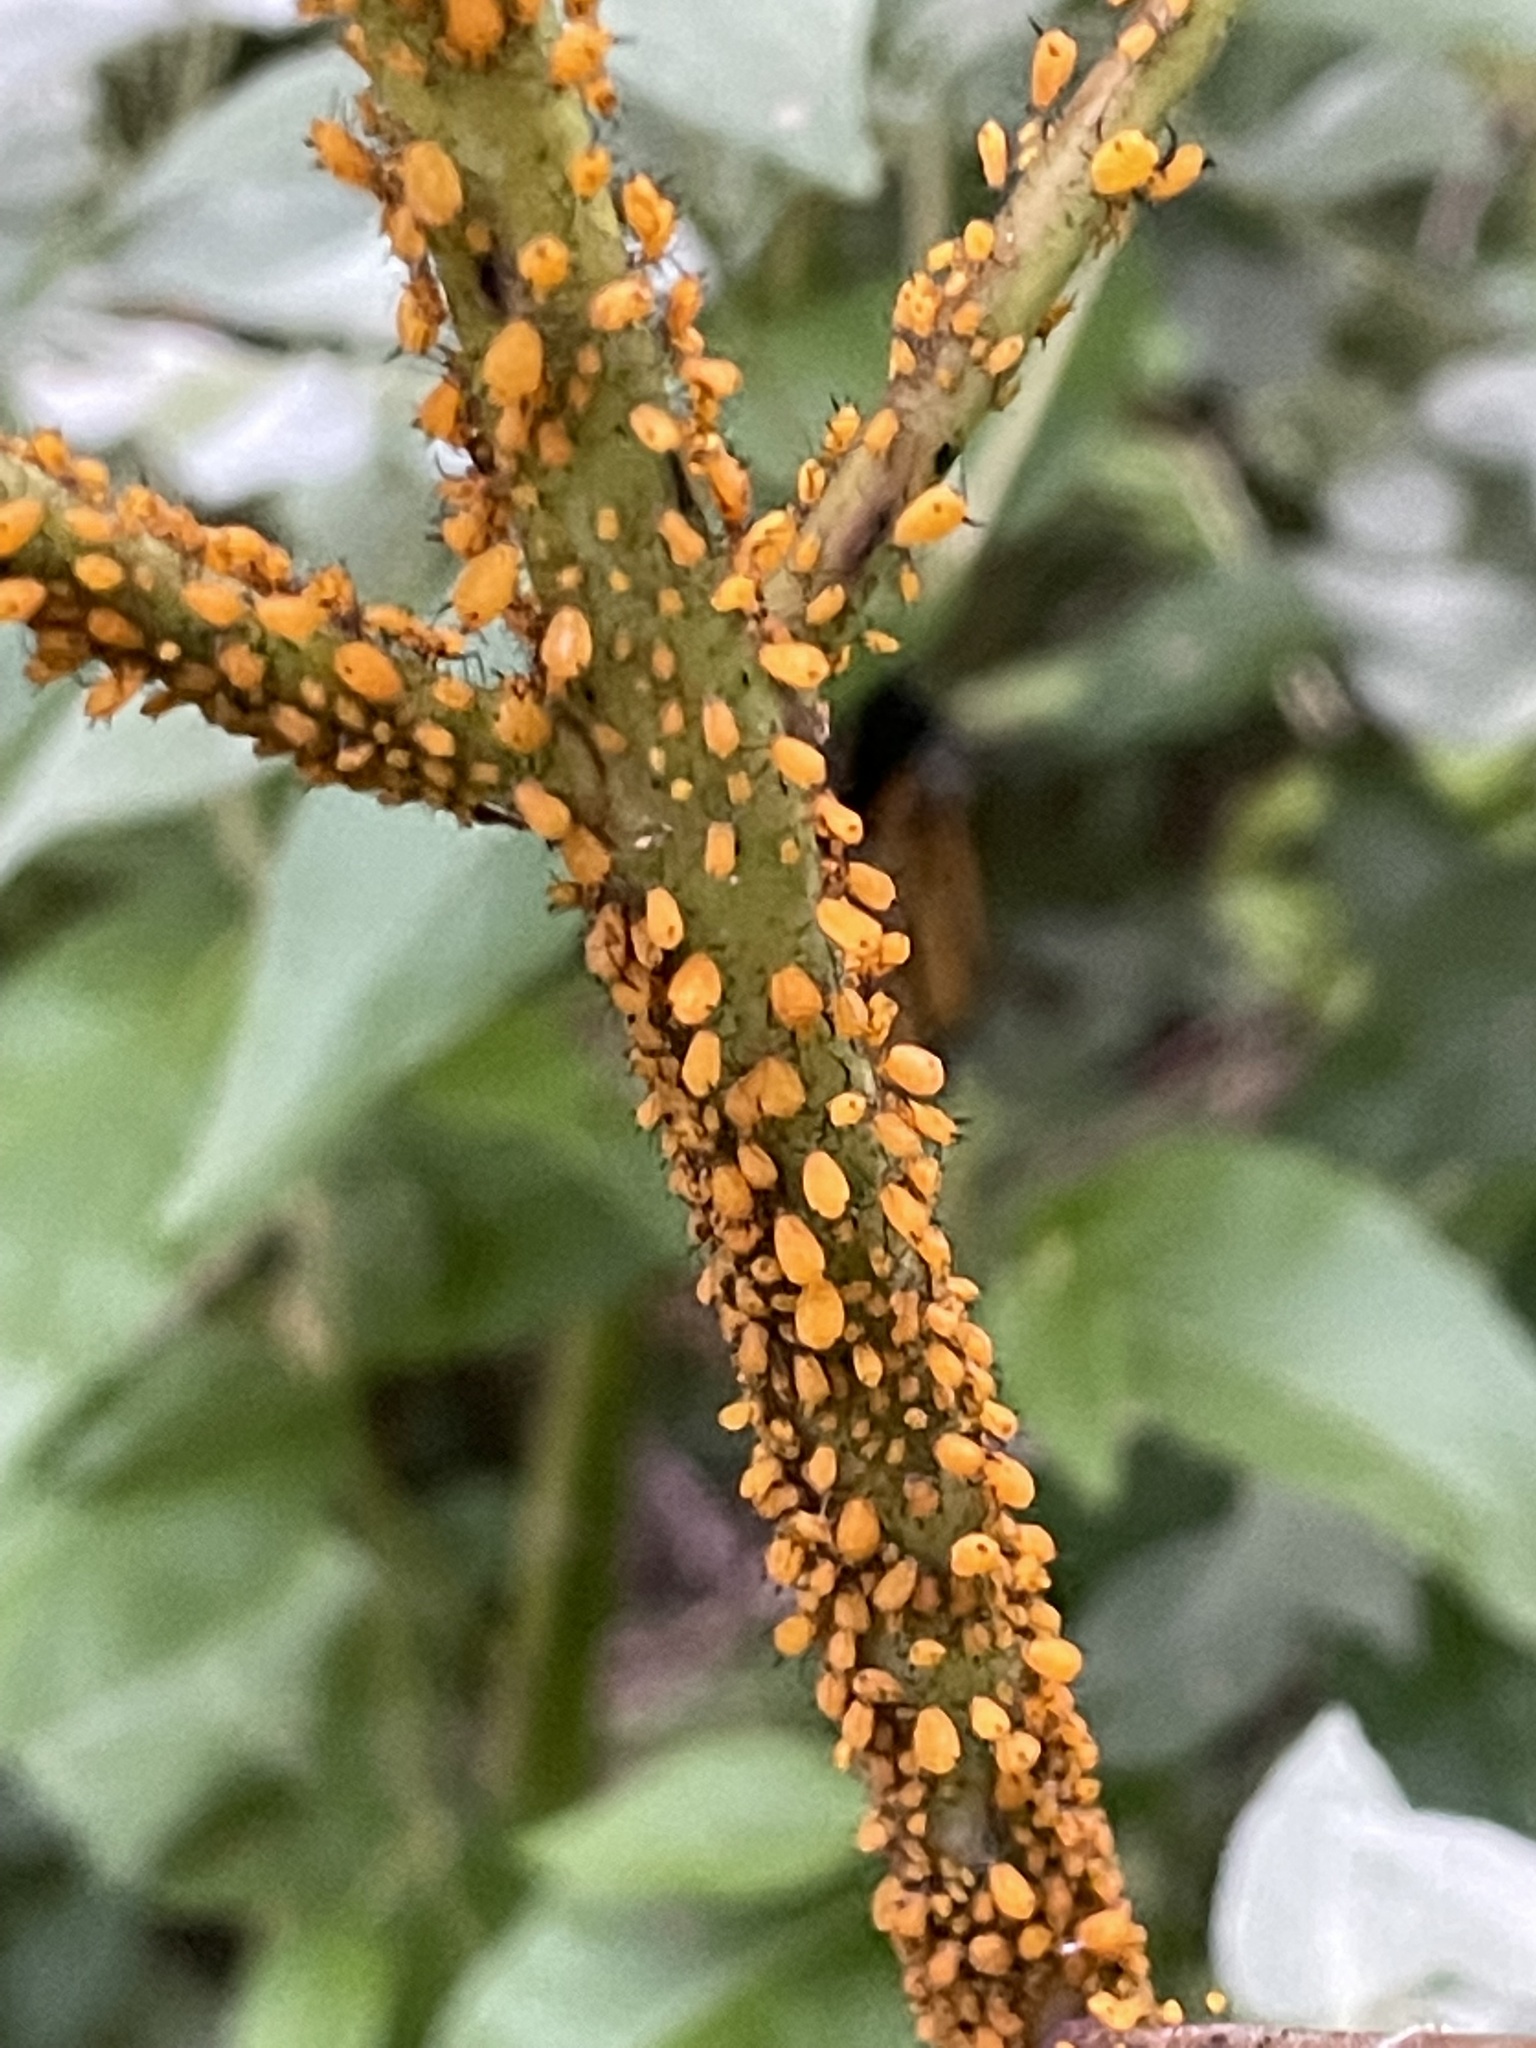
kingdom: Animalia
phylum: Arthropoda
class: Insecta
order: Hemiptera
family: Aphididae
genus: Aphis
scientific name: Aphis nerii
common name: Oleander aphid
